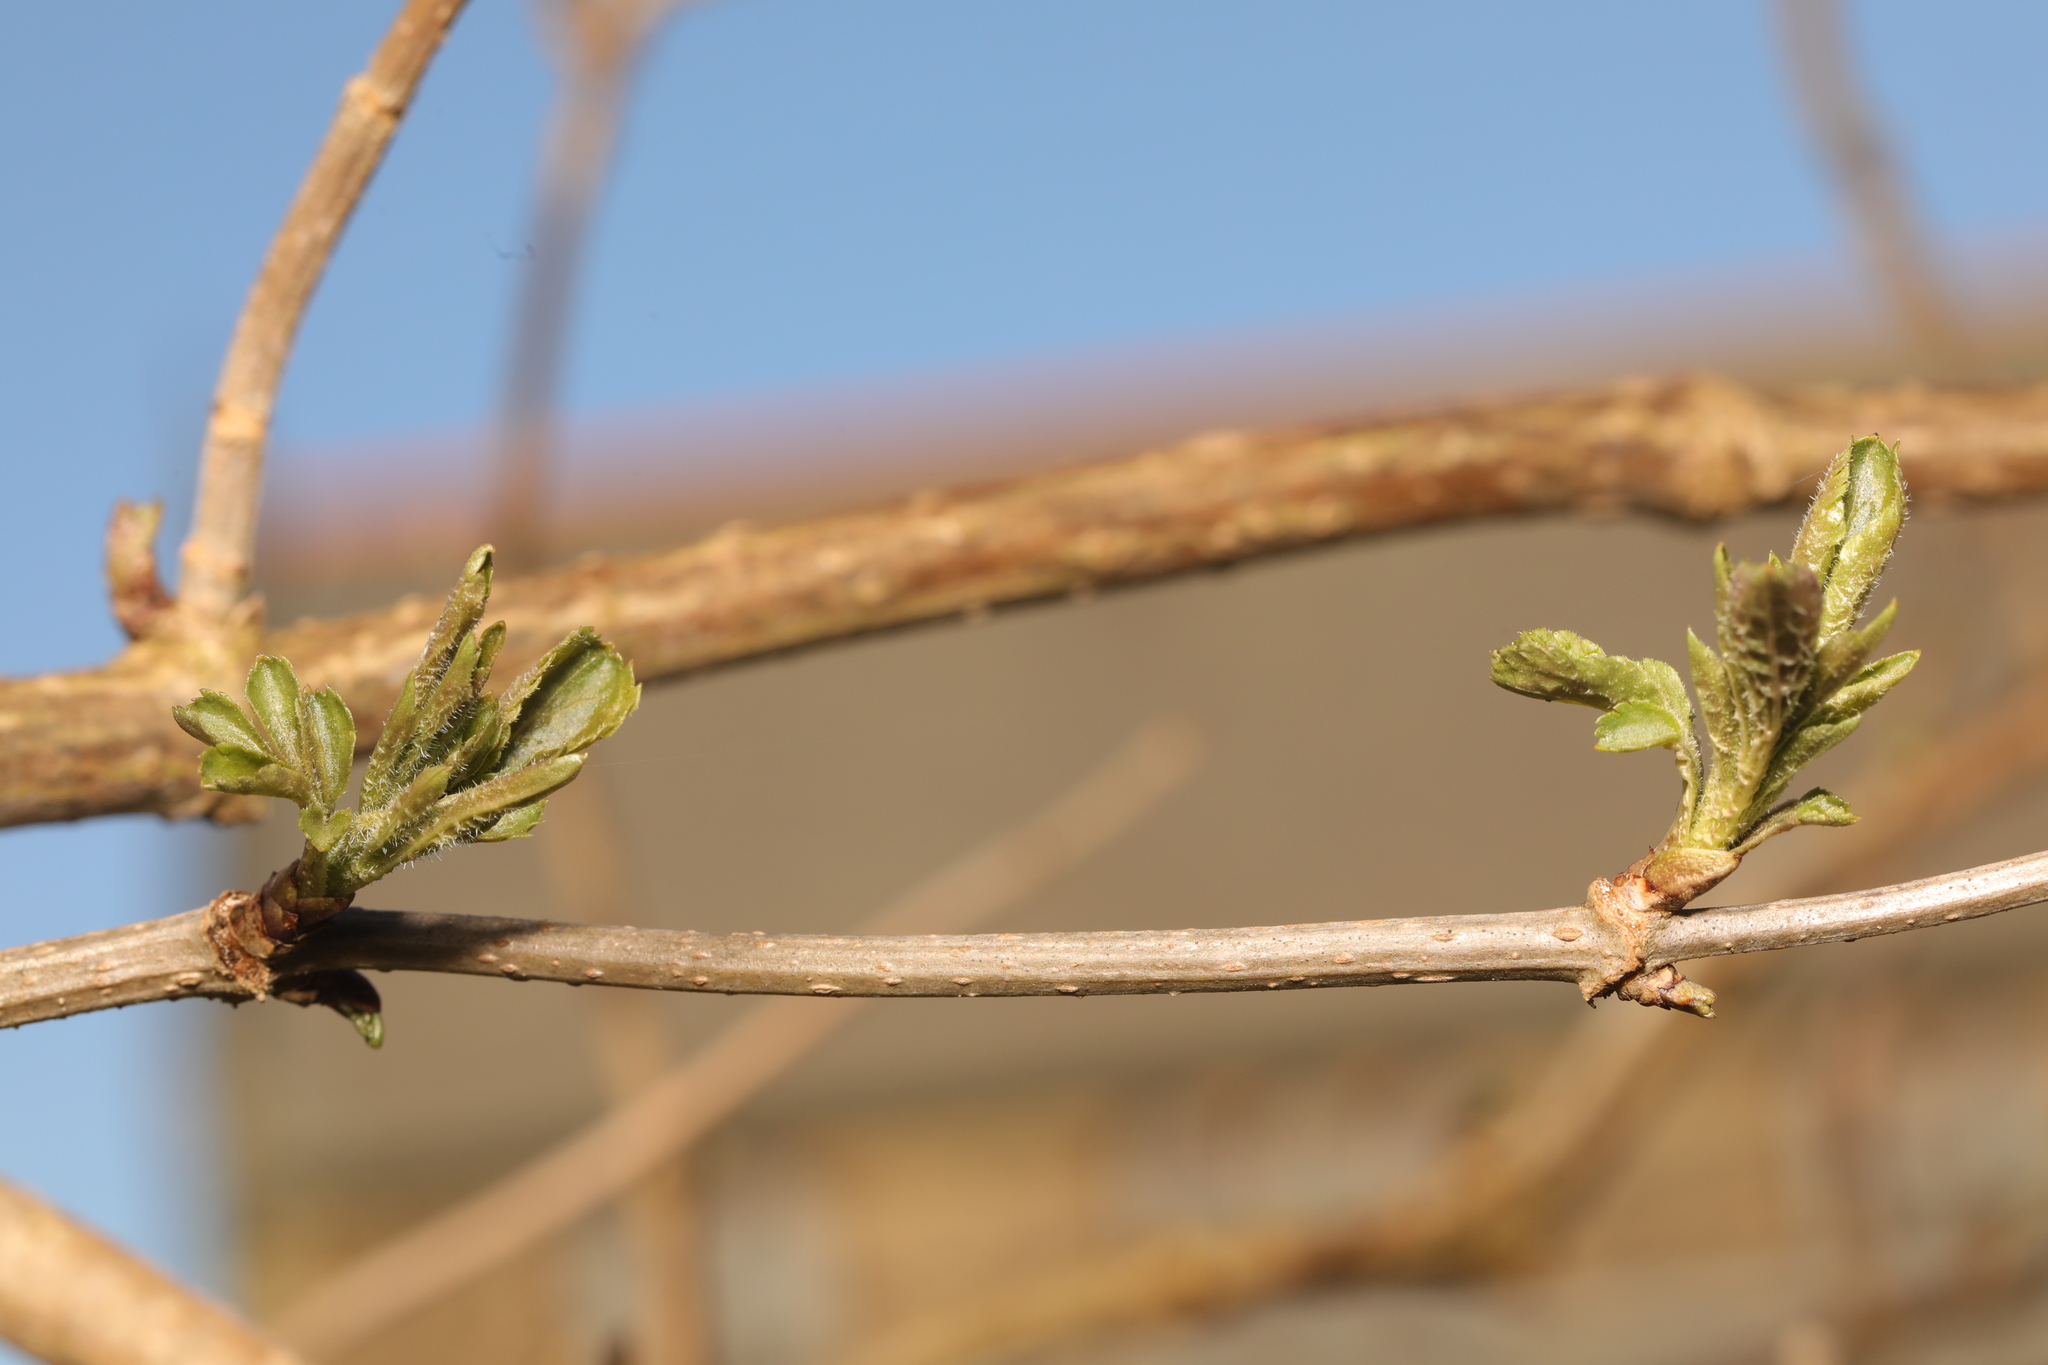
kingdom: Plantae
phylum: Tracheophyta
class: Magnoliopsida
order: Dipsacales
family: Viburnaceae
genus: Sambucus
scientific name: Sambucus nigra
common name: Elder
